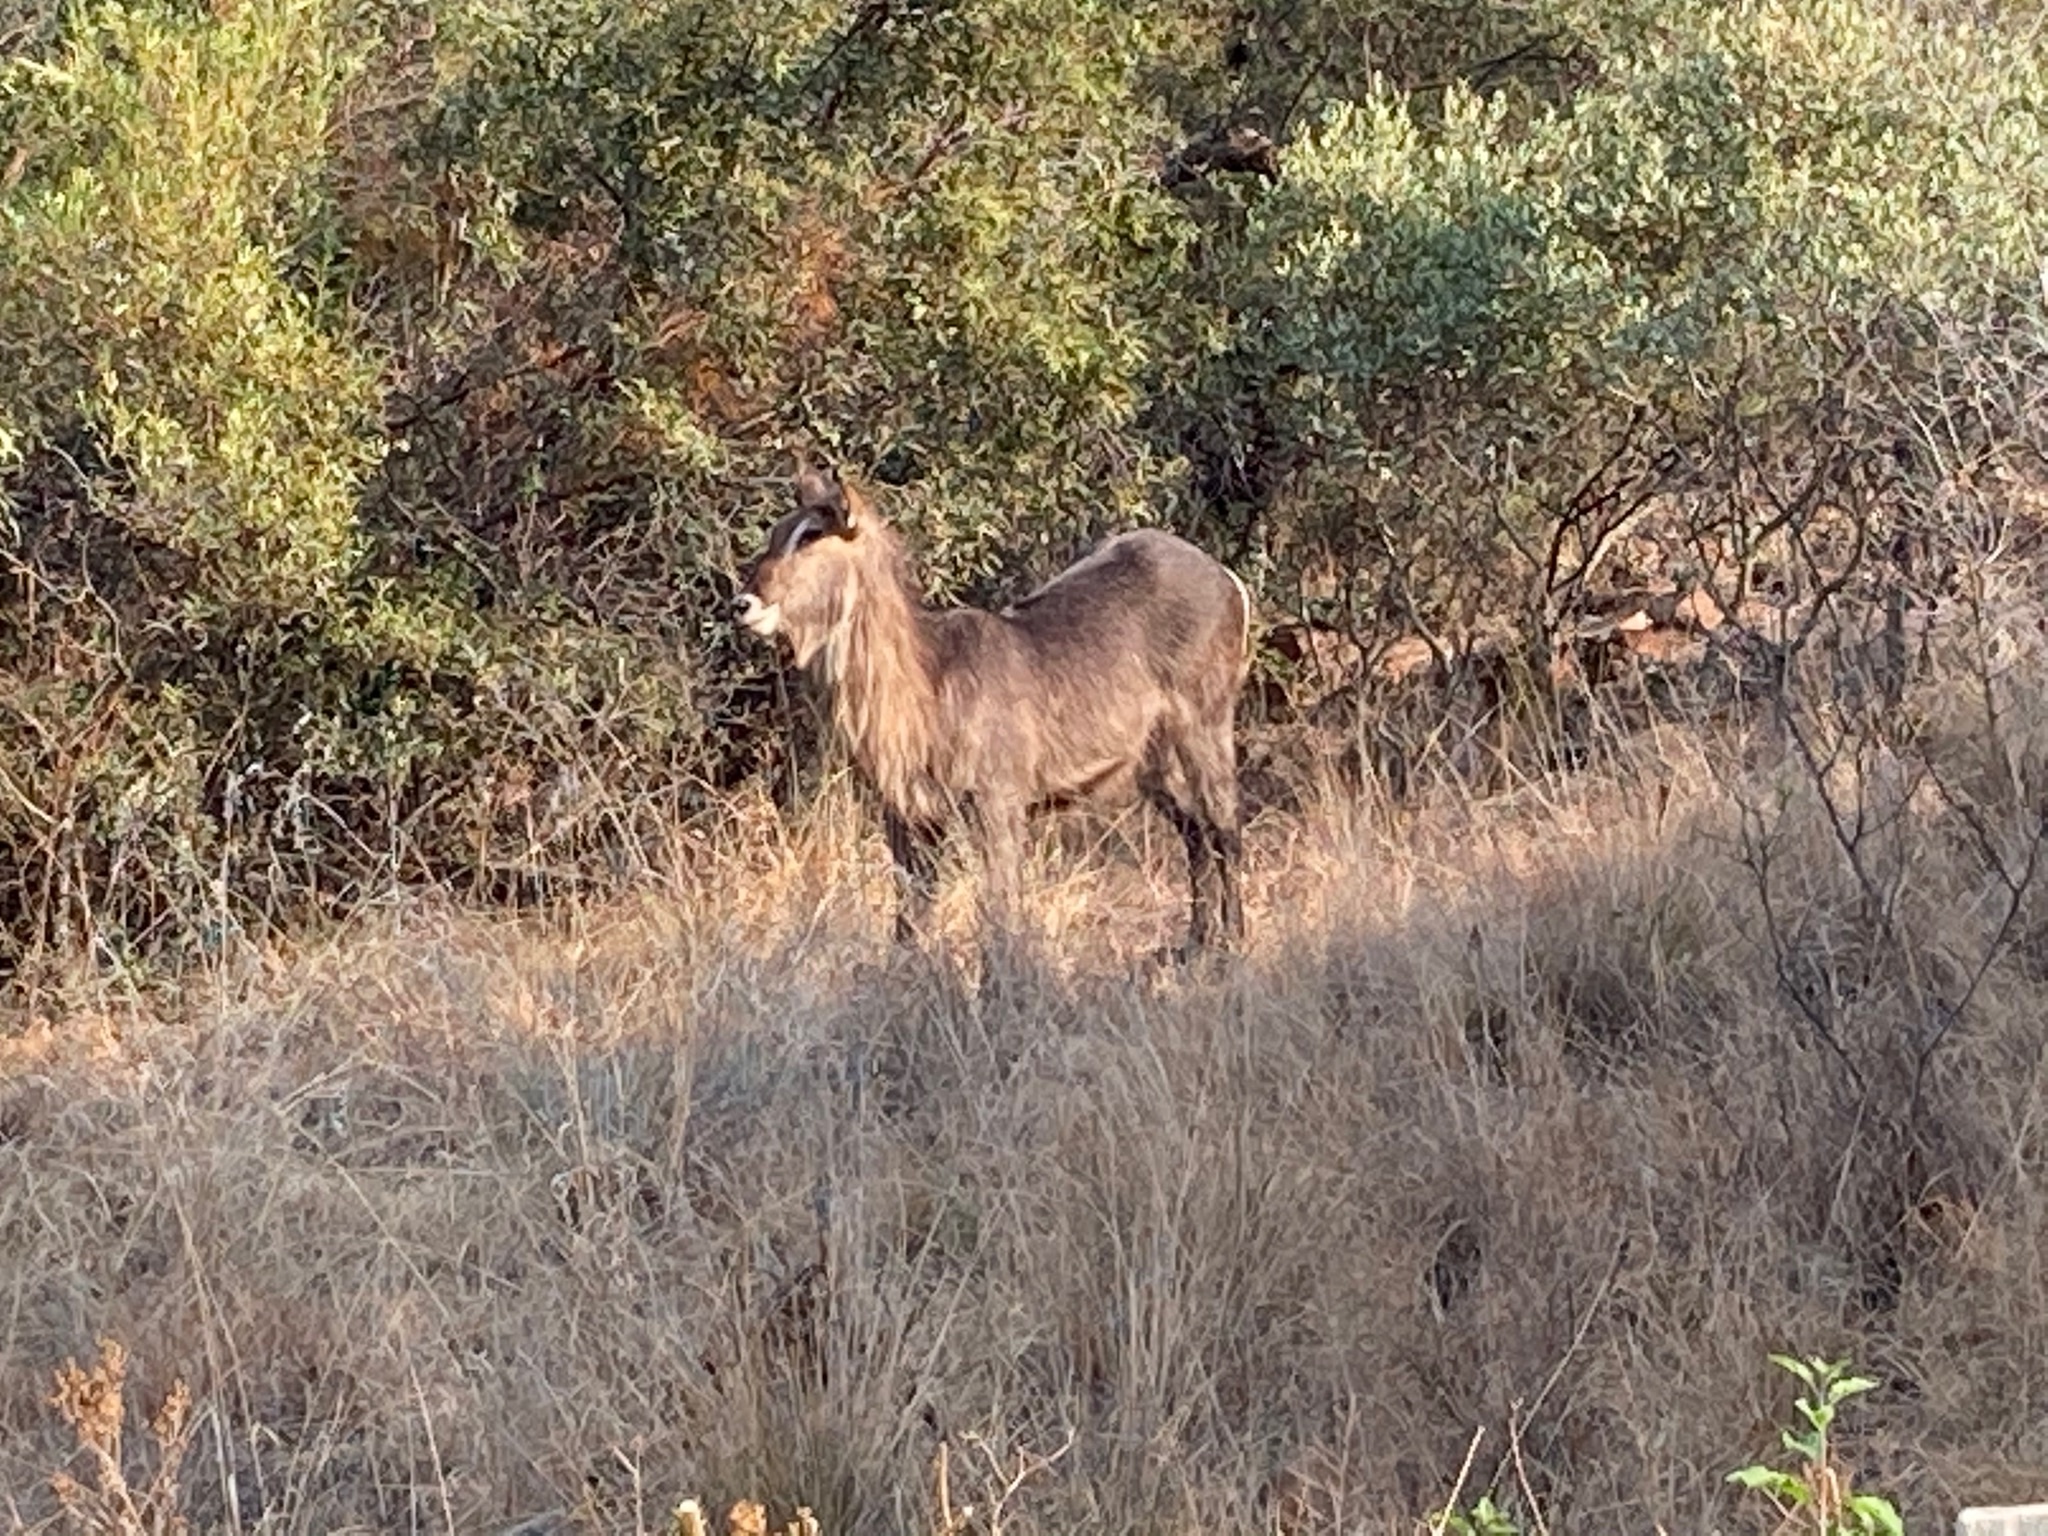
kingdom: Animalia
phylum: Chordata
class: Mammalia
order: Artiodactyla
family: Bovidae
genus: Kobus
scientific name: Kobus ellipsiprymnus
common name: Waterbuck
